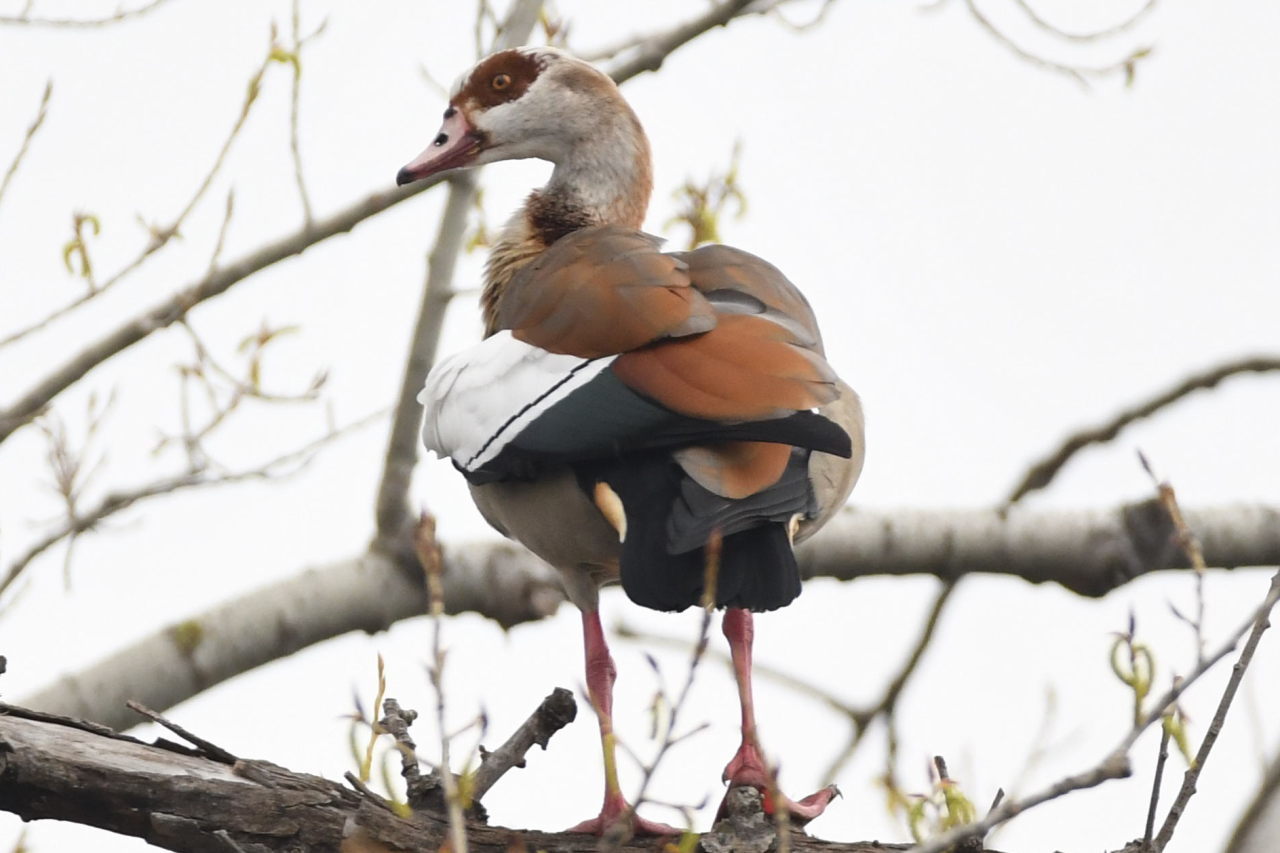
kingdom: Animalia
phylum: Chordata
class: Aves
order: Anseriformes
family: Anatidae
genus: Alopochen
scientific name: Alopochen aegyptiaca
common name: Egyptian goose
